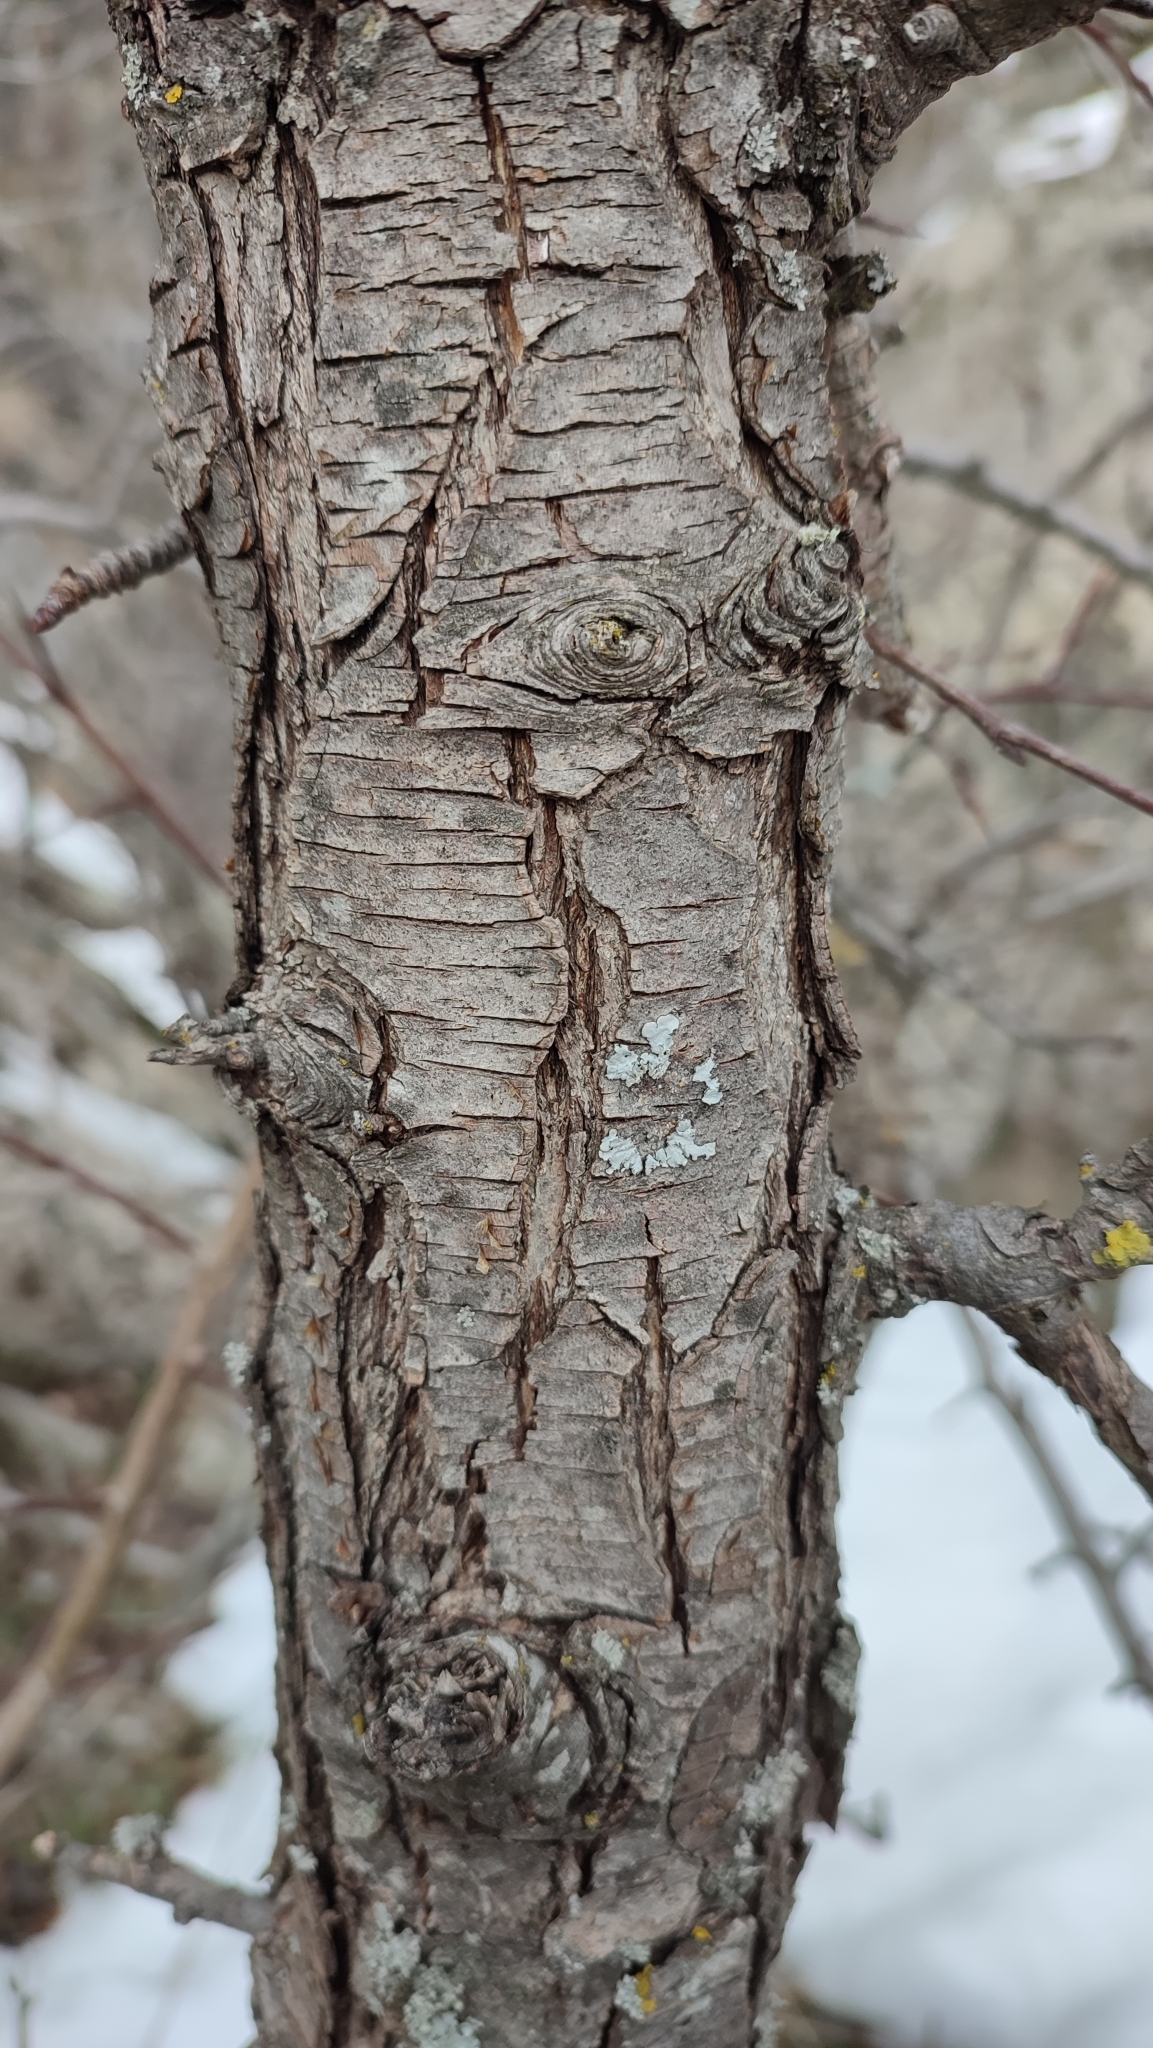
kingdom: Plantae
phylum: Tracheophyta
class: Magnoliopsida
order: Rosales
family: Rosaceae
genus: Pyrus
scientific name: Pyrus communis
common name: Pear
